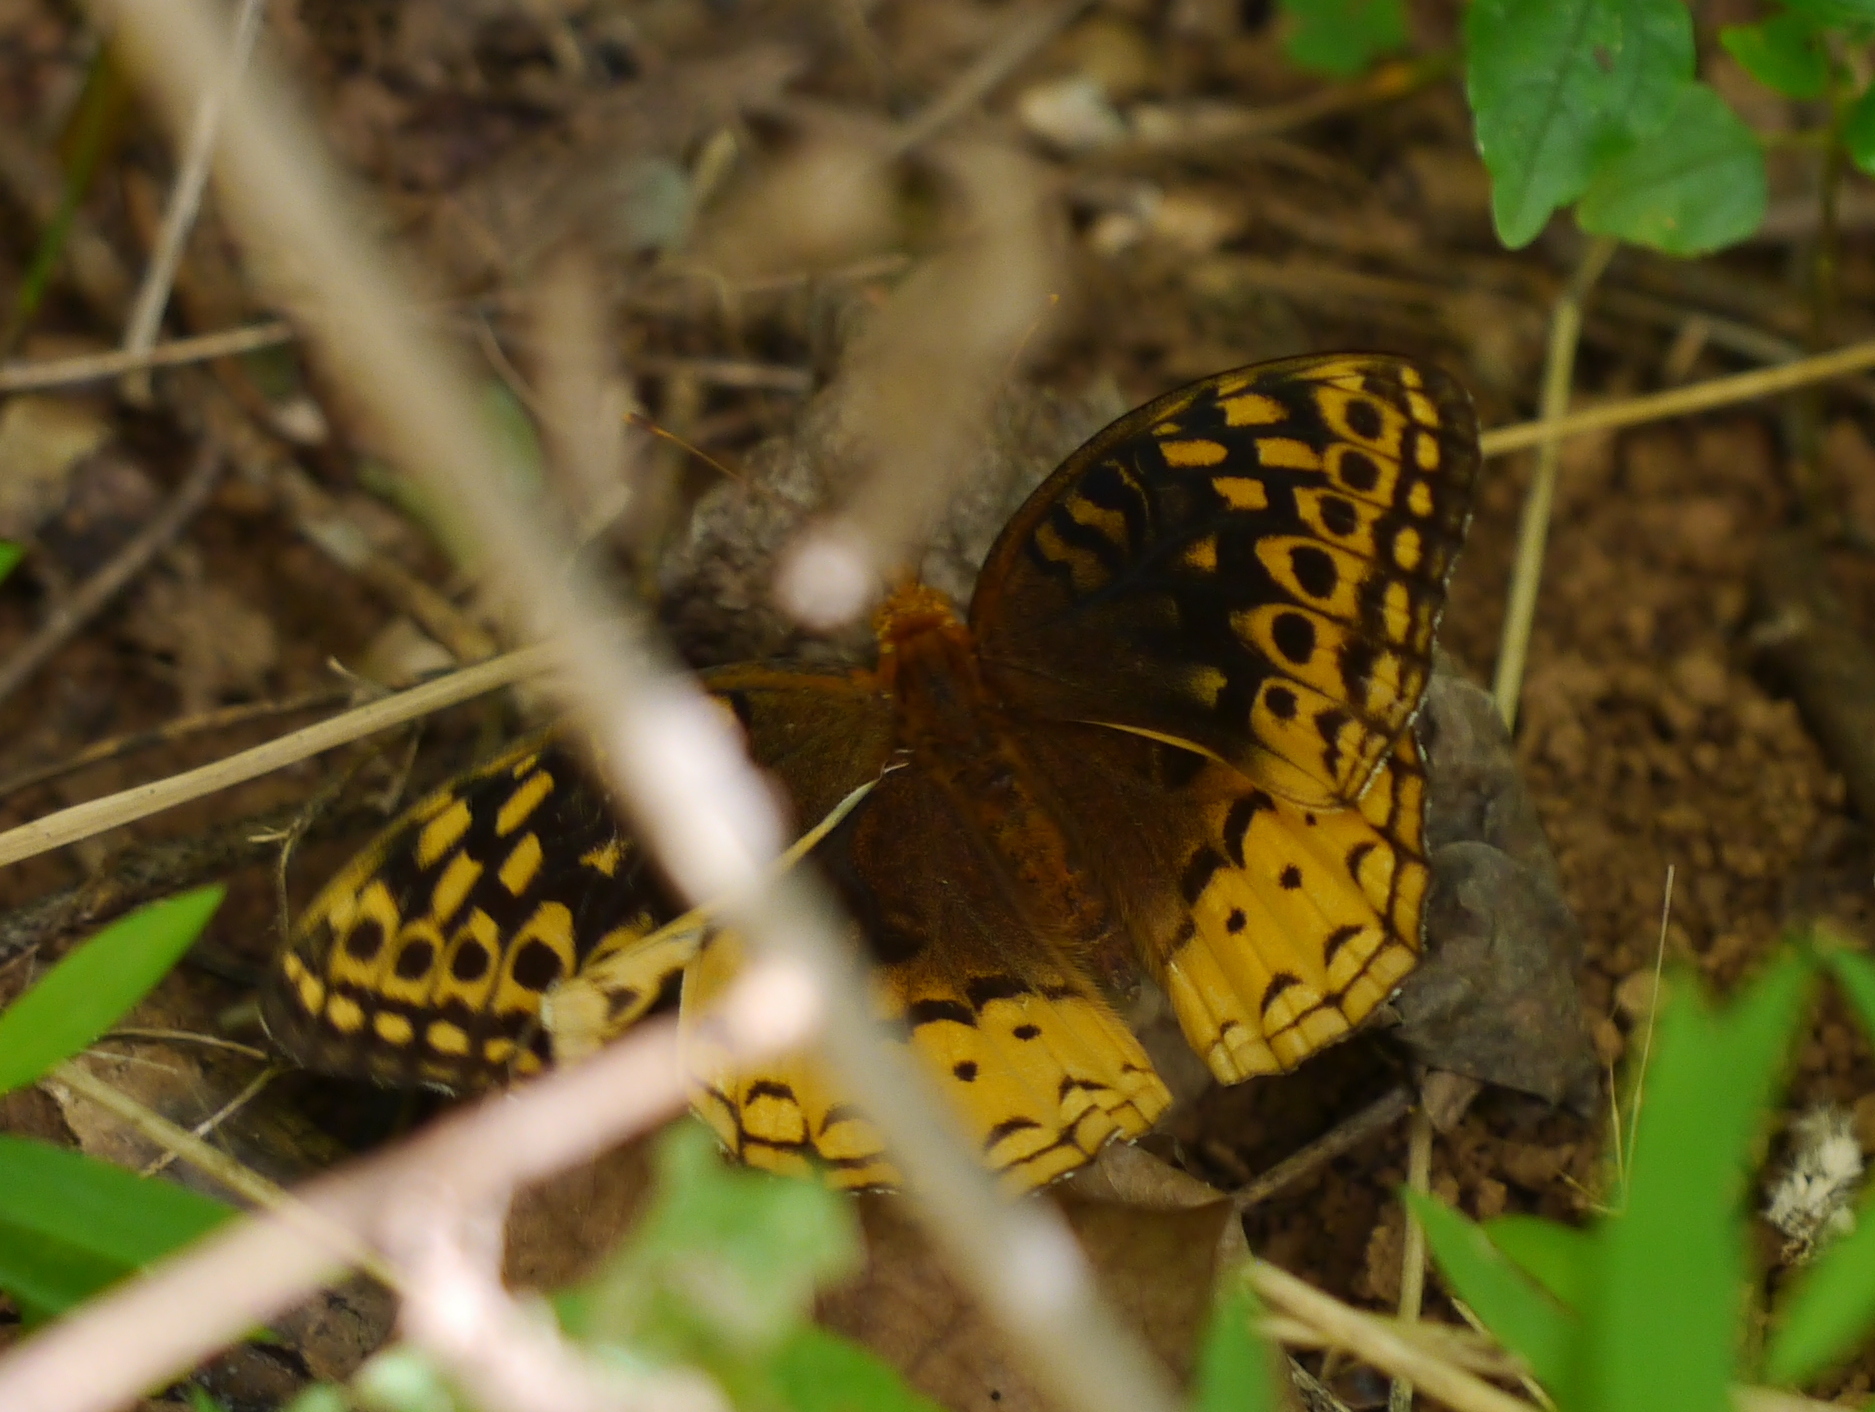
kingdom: Animalia
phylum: Arthropoda
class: Insecta
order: Lepidoptera
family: Nymphalidae
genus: Speyeria
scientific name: Speyeria cybele
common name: Great spangled fritillary
